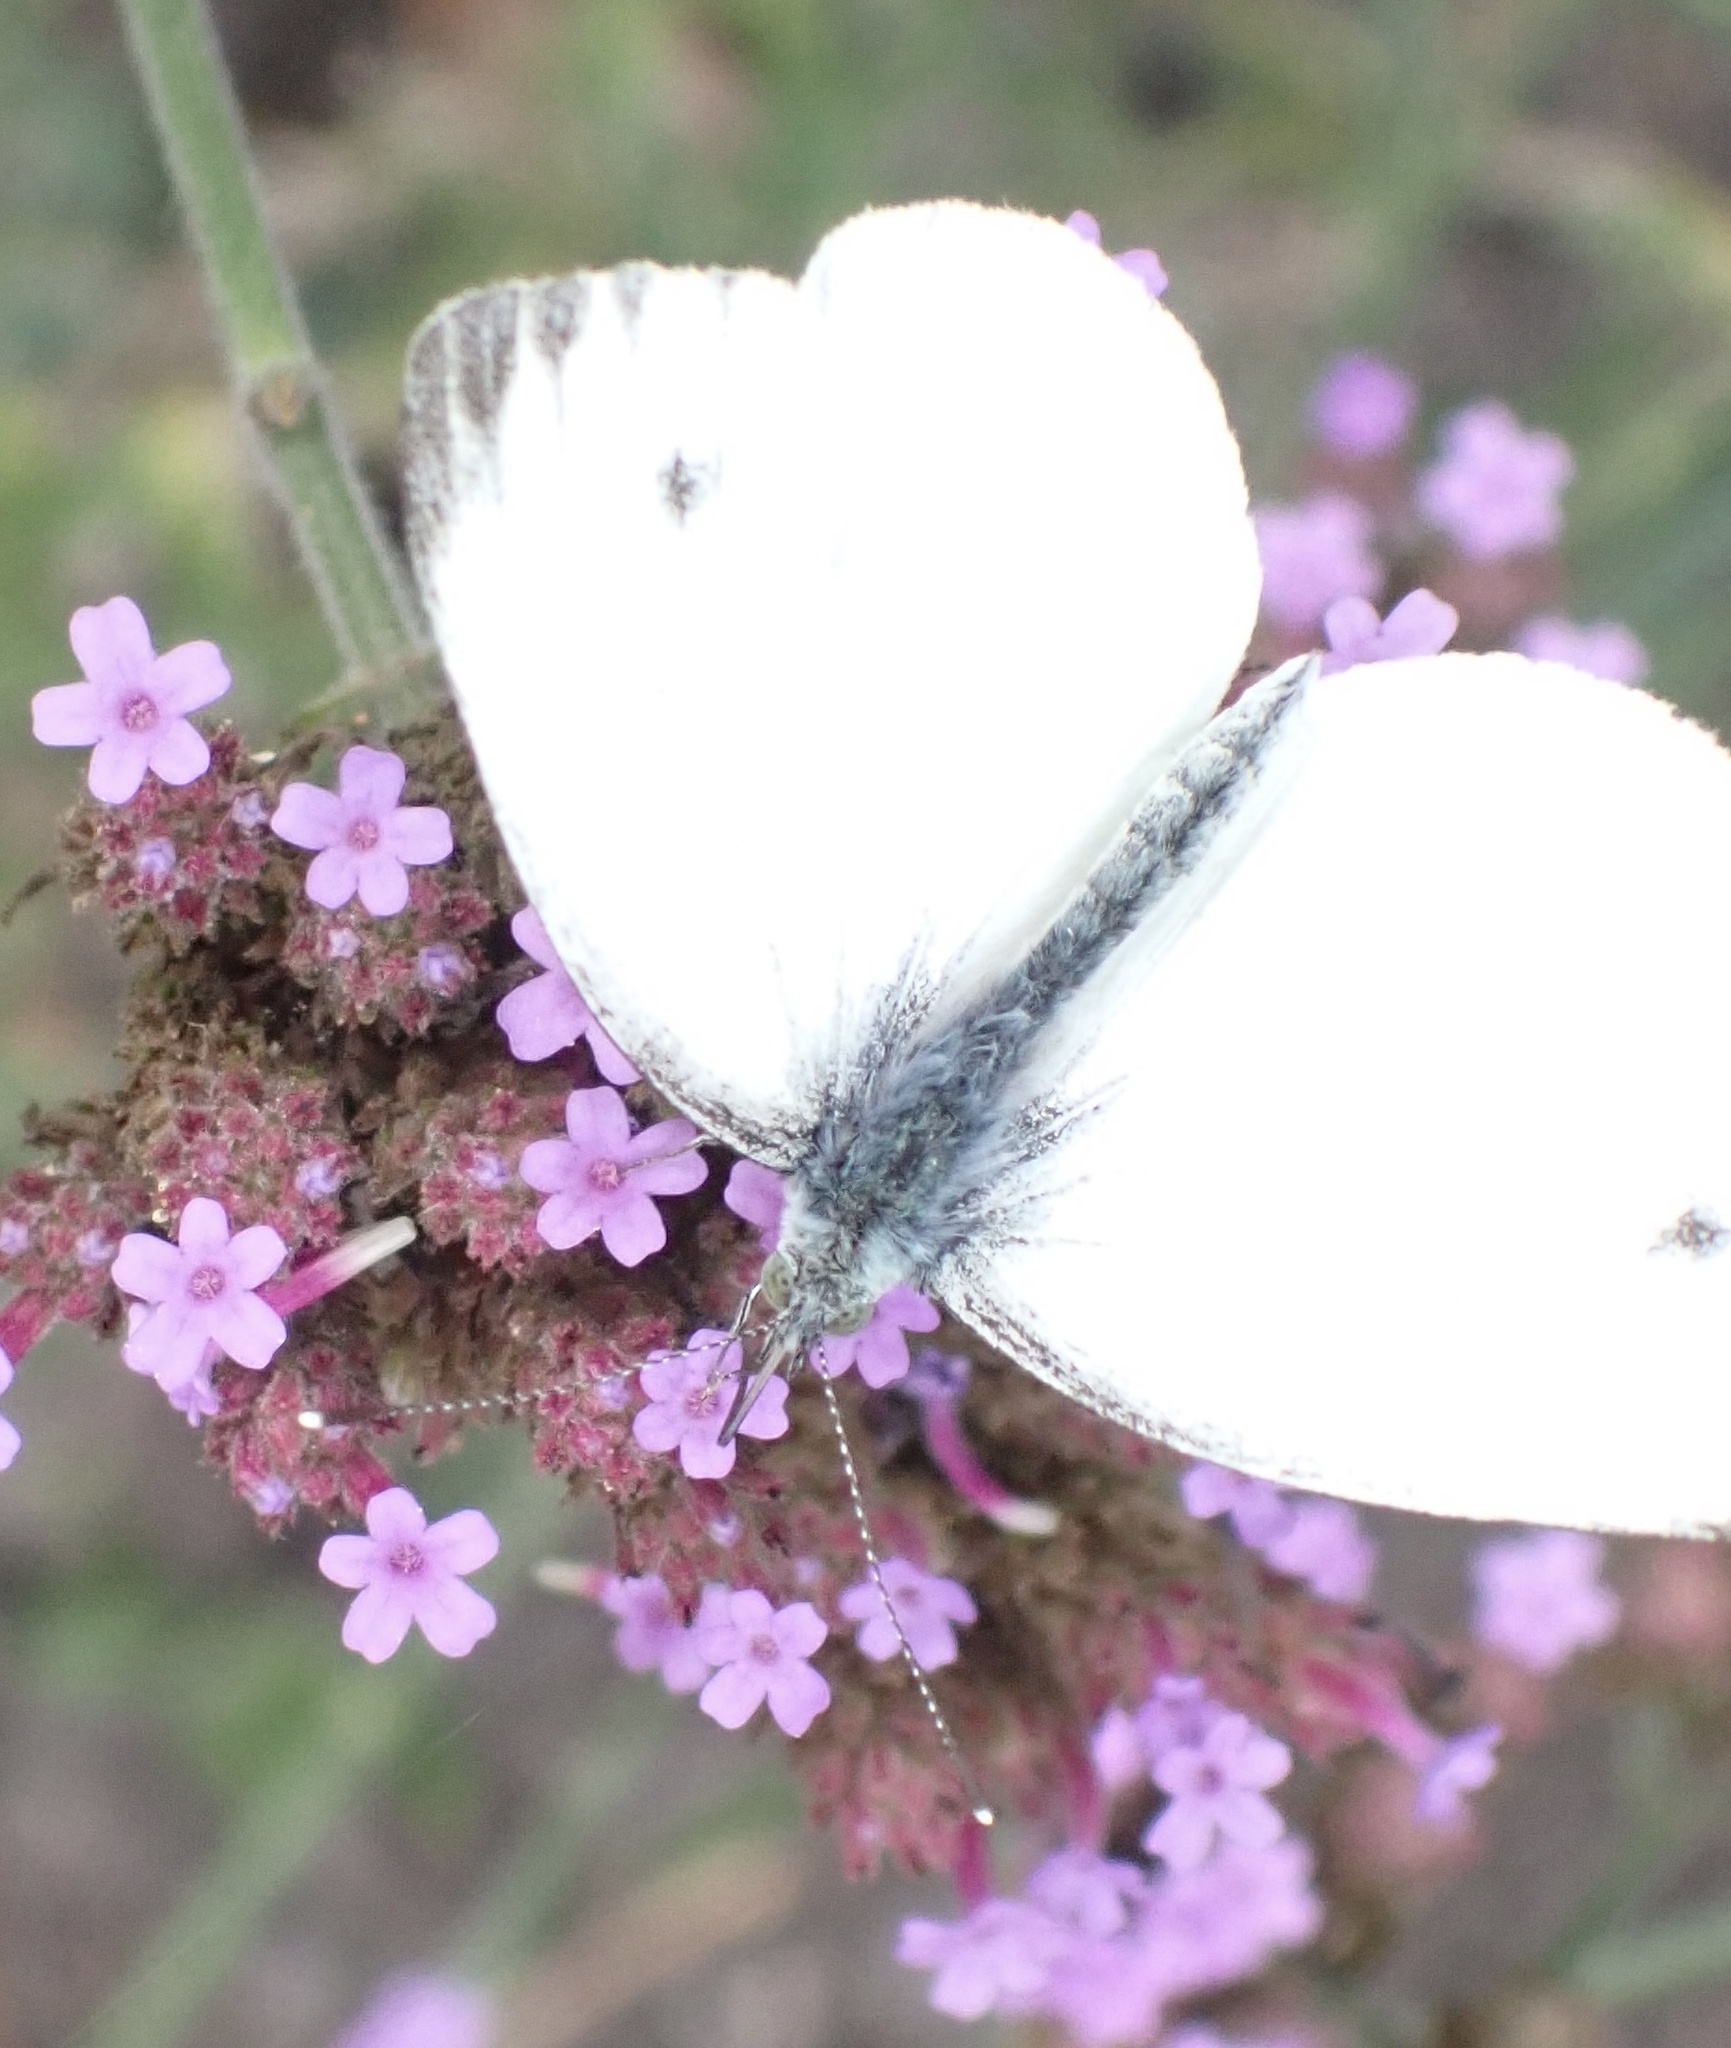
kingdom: Animalia
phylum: Arthropoda
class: Insecta
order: Lepidoptera
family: Pieridae
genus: Pieris
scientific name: Pieris napi
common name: Green-veined white
